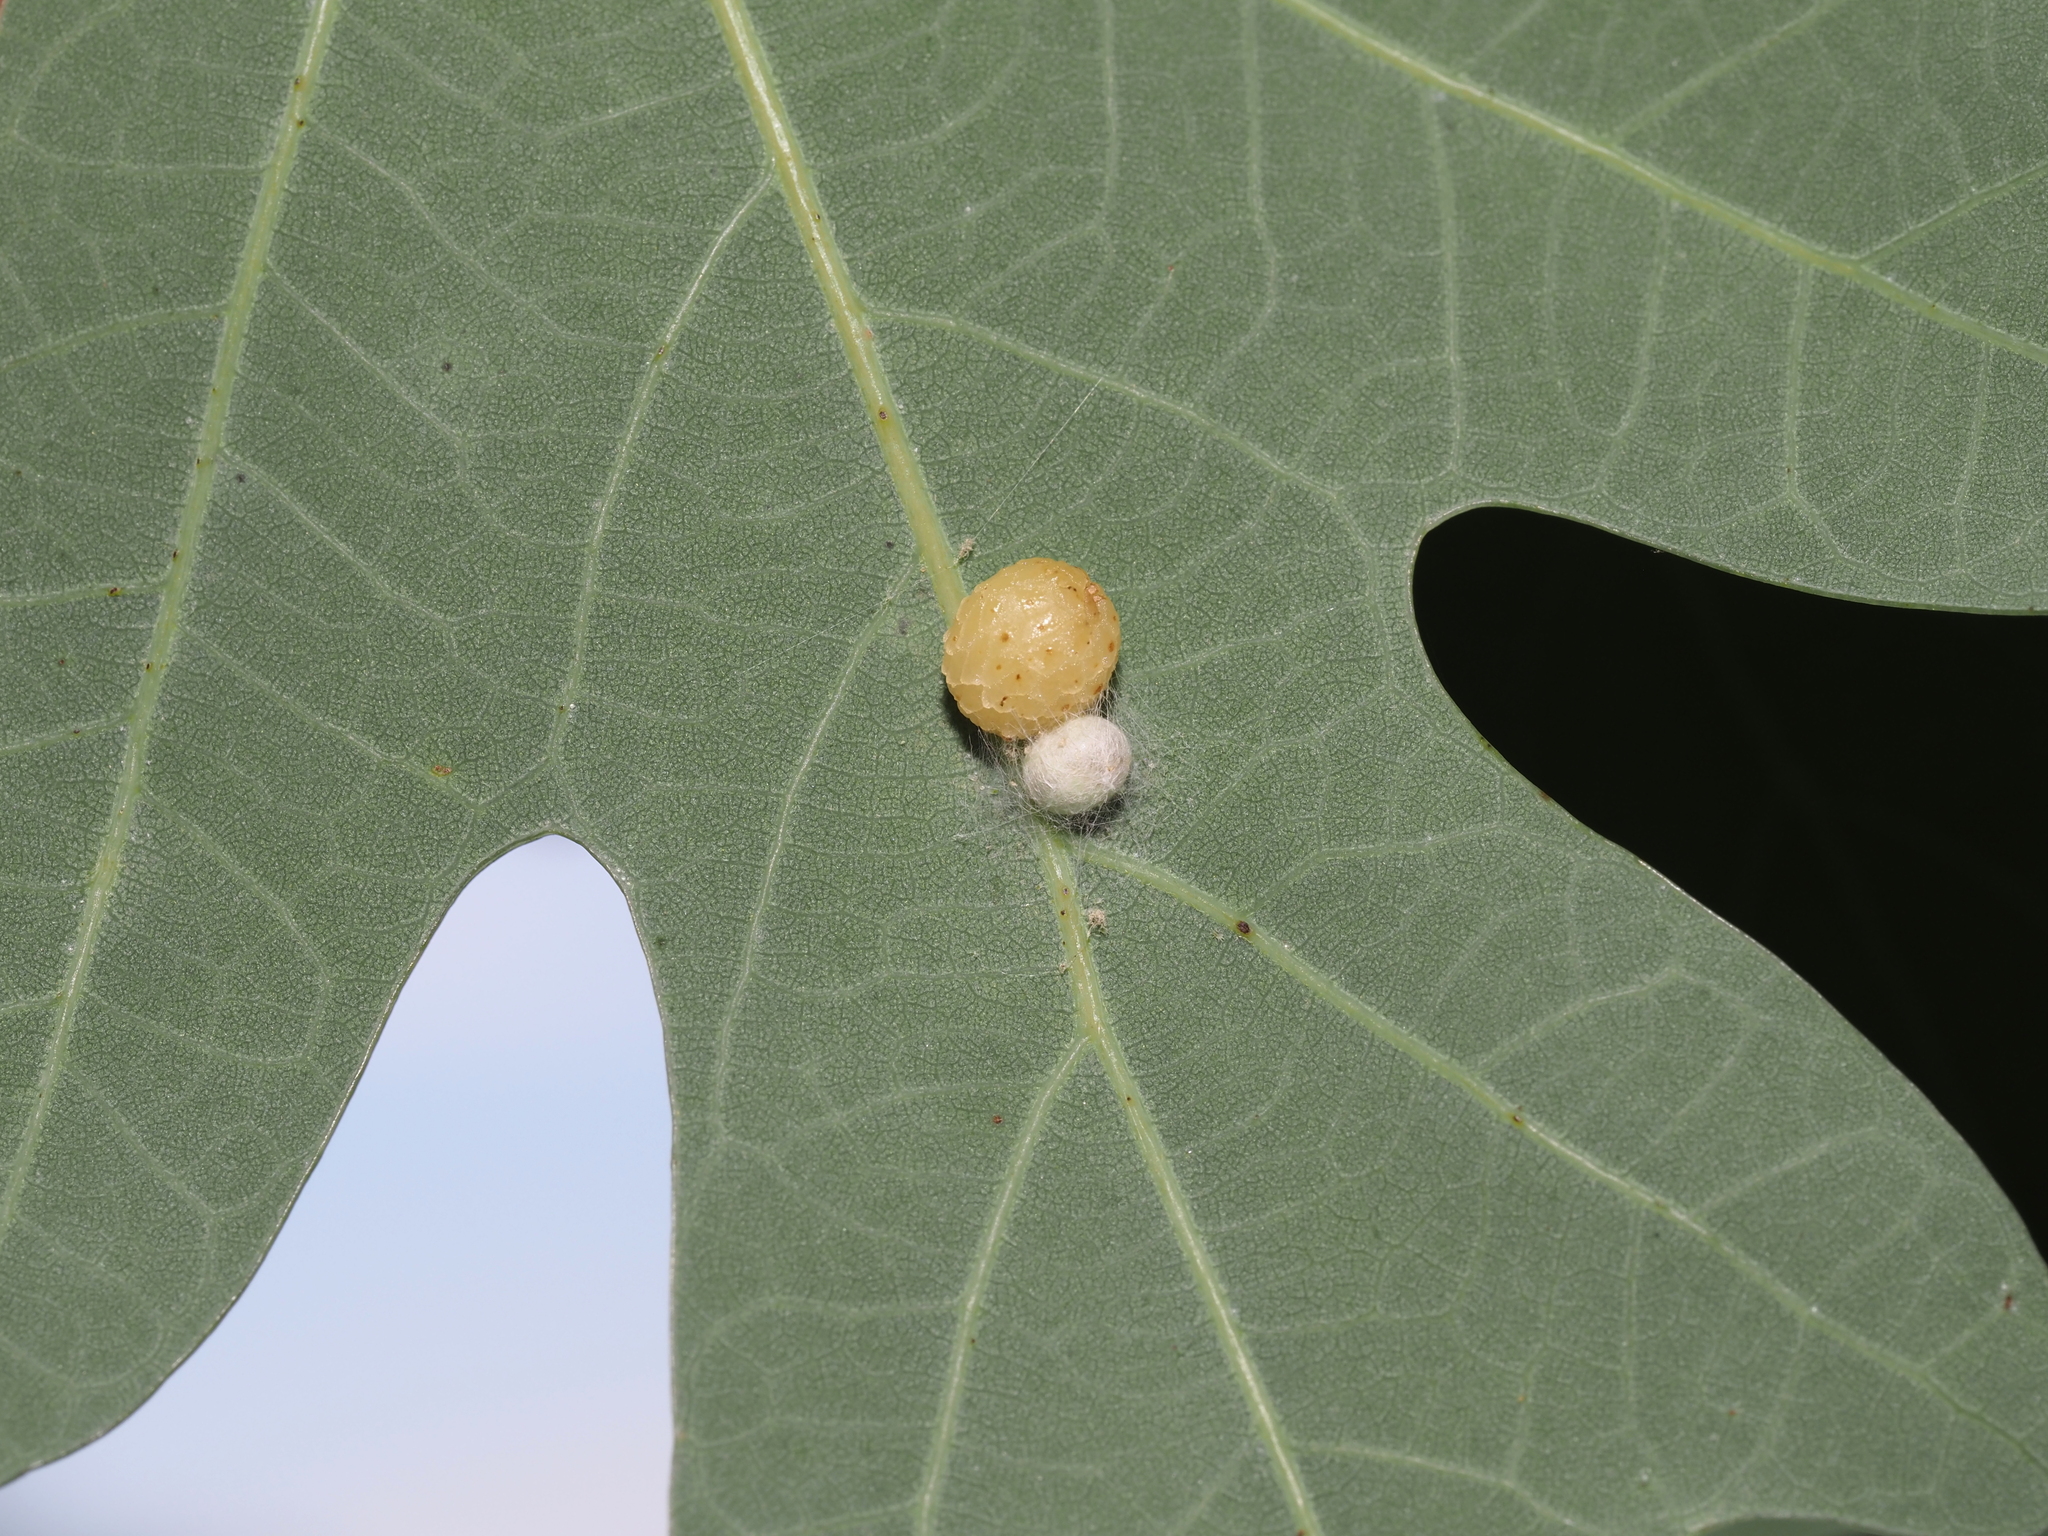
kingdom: Animalia
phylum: Arthropoda
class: Insecta
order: Hymenoptera
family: Cynipidae
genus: Acraspis
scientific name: Acraspis
